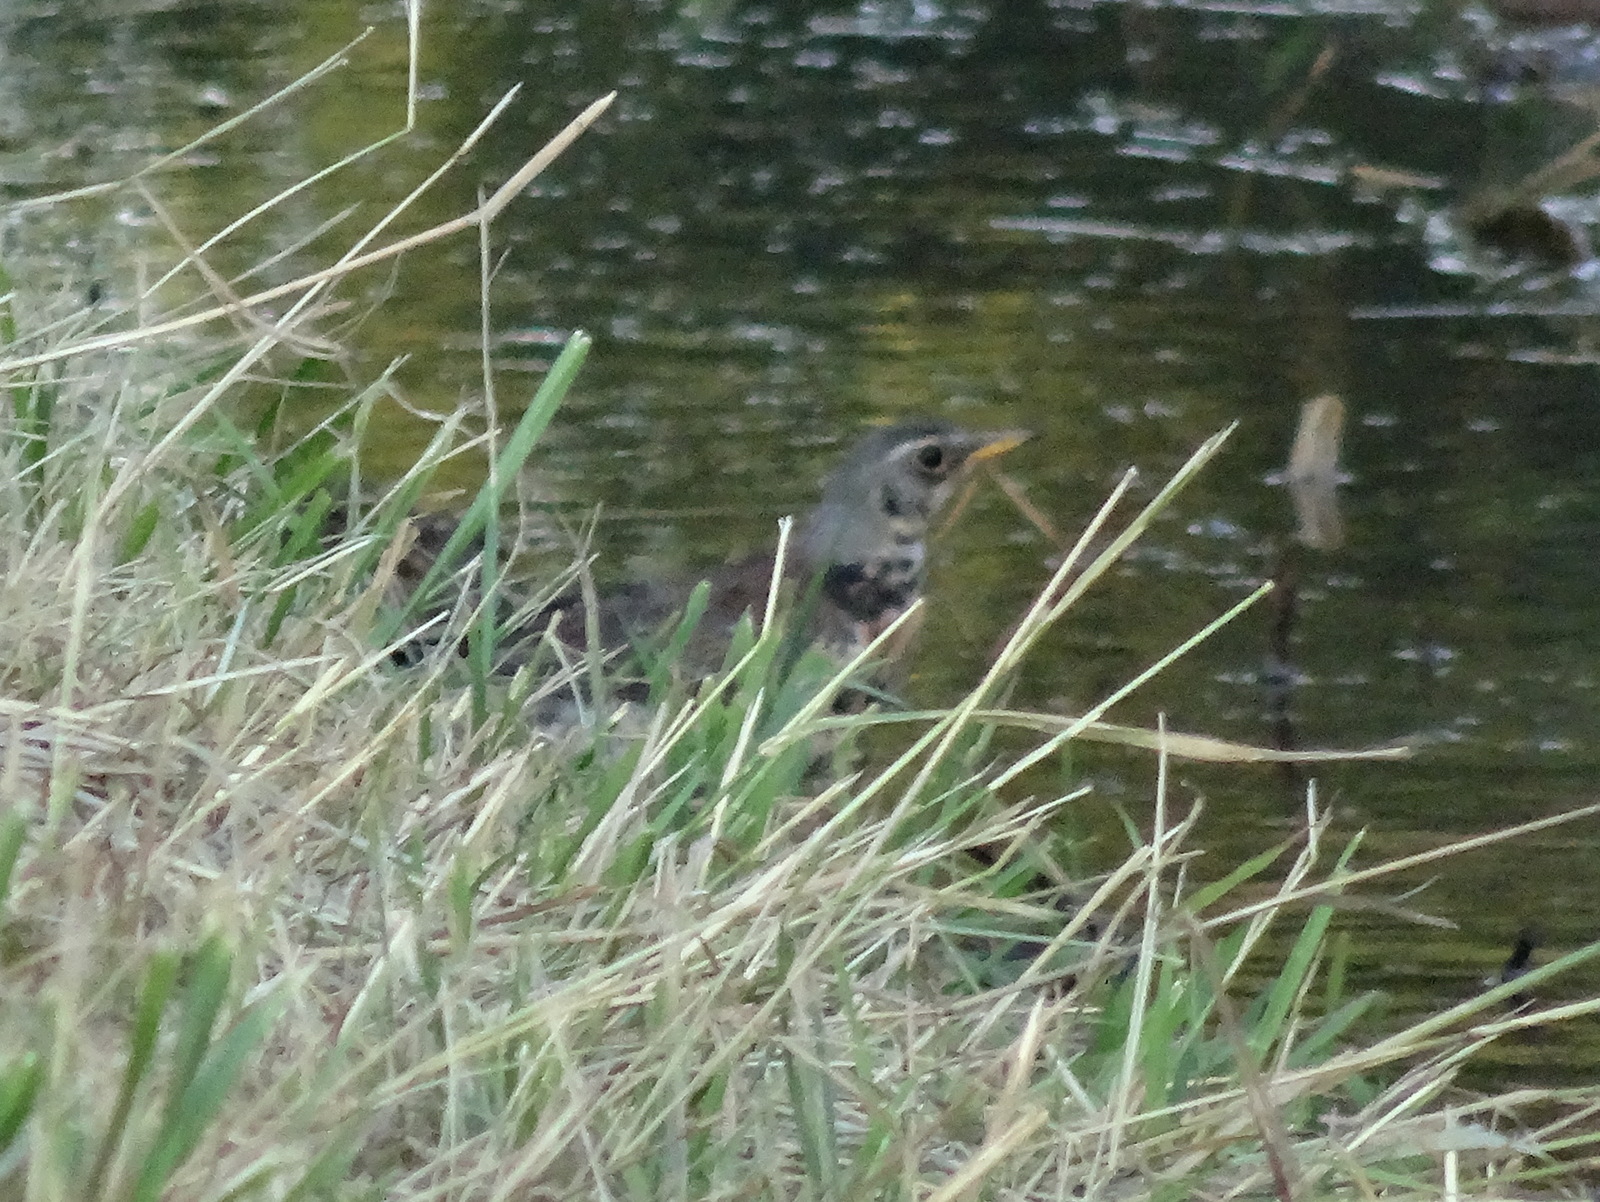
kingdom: Animalia
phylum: Chordata
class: Aves
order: Passeriformes
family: Turdidae
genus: Turdus
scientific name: Turdus pilaris
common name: Fieldfare
